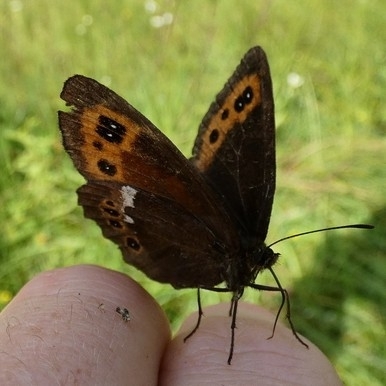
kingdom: Animalia
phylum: Arthropoda
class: Insecta
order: Lepidoptera
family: Nymphalidae
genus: Erebia
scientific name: Erebia ligea
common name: Arran brown
